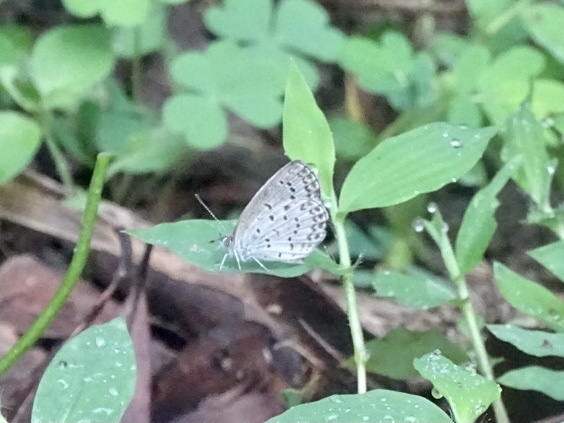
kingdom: Animalia
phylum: Arthropoda
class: Insecta
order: Lepidoptera
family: Lycaenidae
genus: Pseudozizeeria
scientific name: Pseudozizeeria maha
